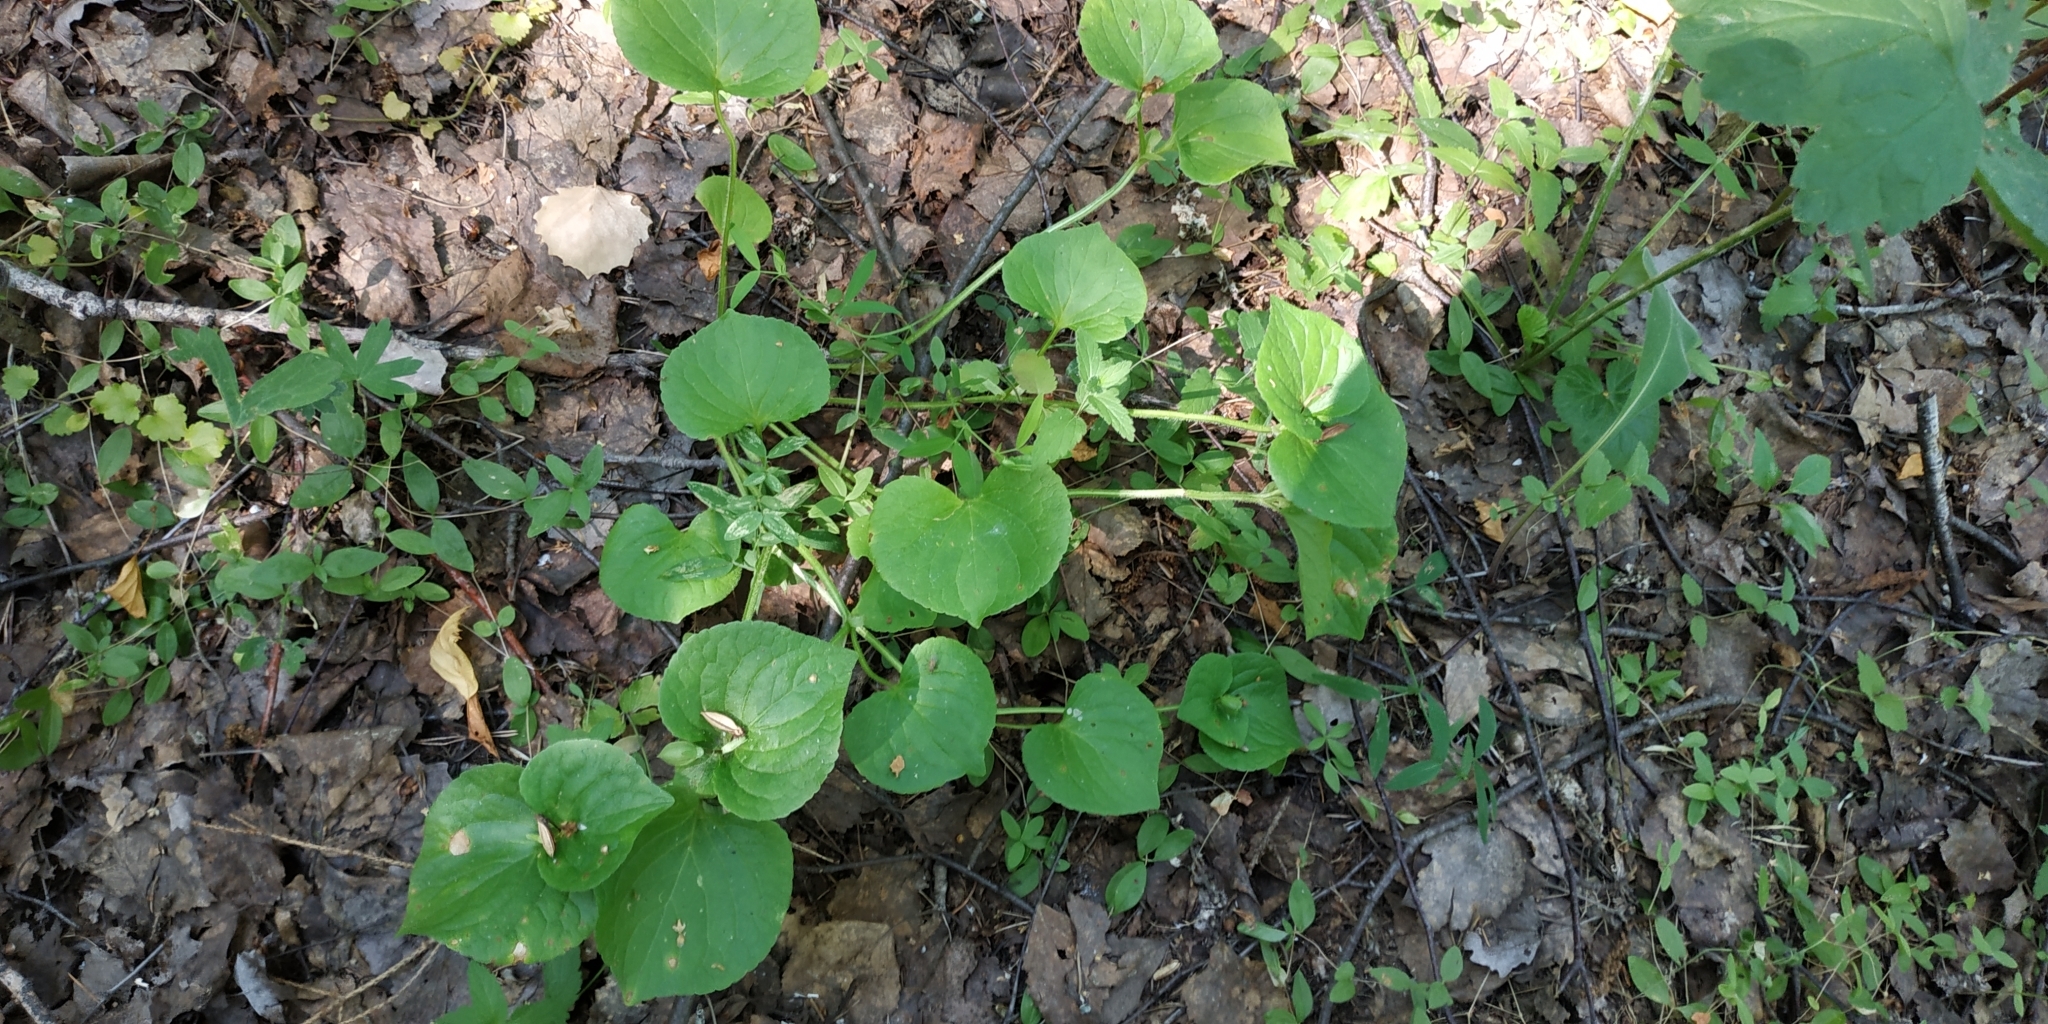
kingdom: Plantae
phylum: Tracheophyta
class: Magnoliopsida
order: Malpighiales
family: Violaceae
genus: Viola
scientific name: Viola mirabilis
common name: Wonder violet
